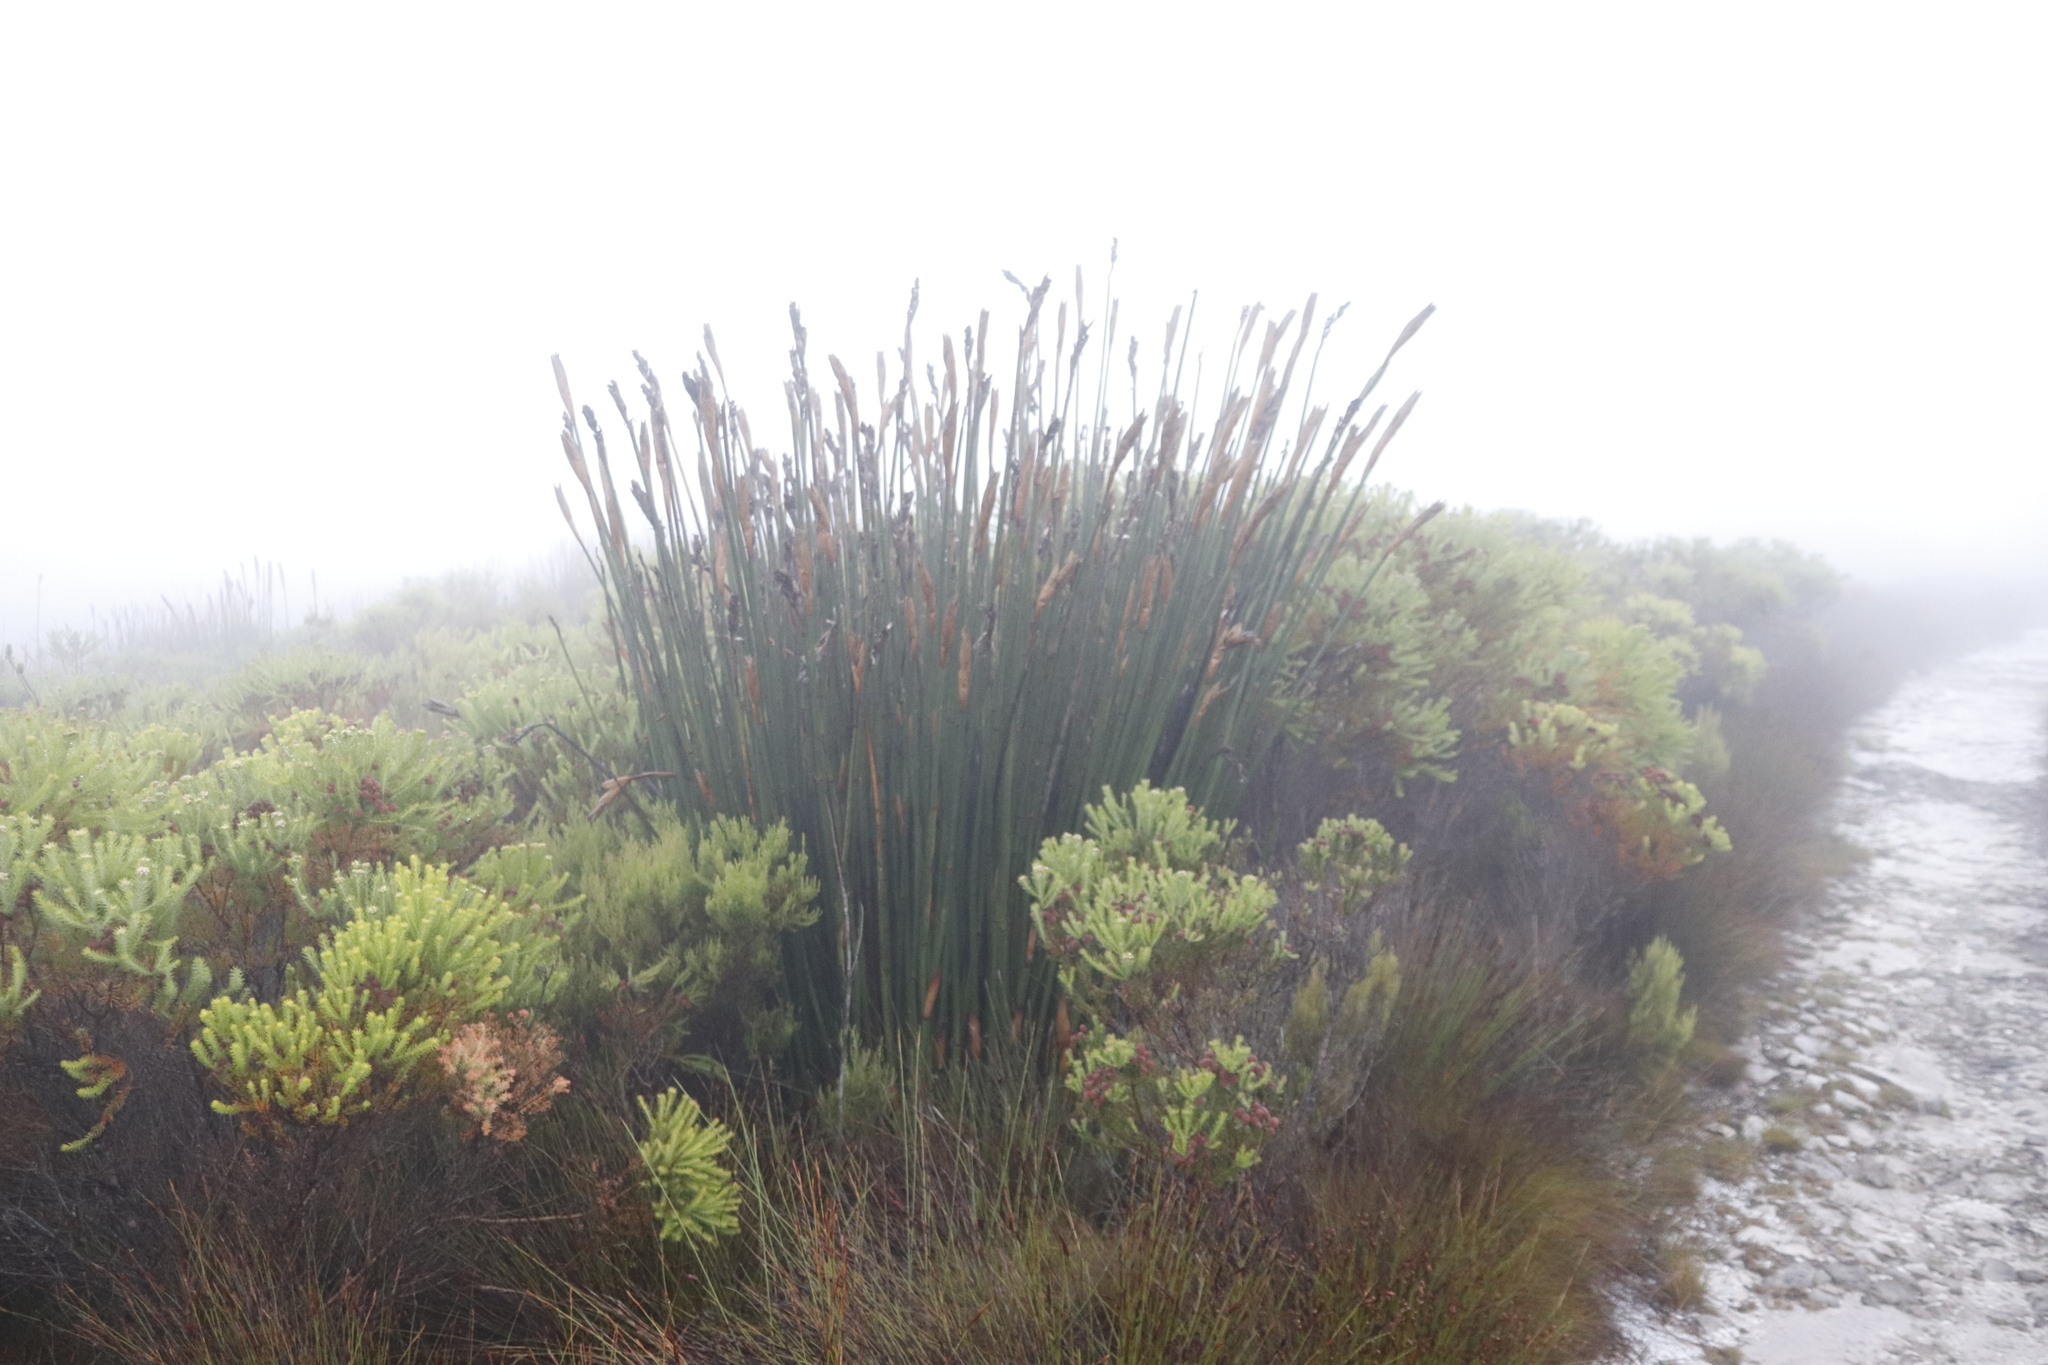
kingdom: Plantae
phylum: Tracheophyta
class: Liliopsida
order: Poales
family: Restionaceae
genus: Elegia
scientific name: Elegia mucronata
